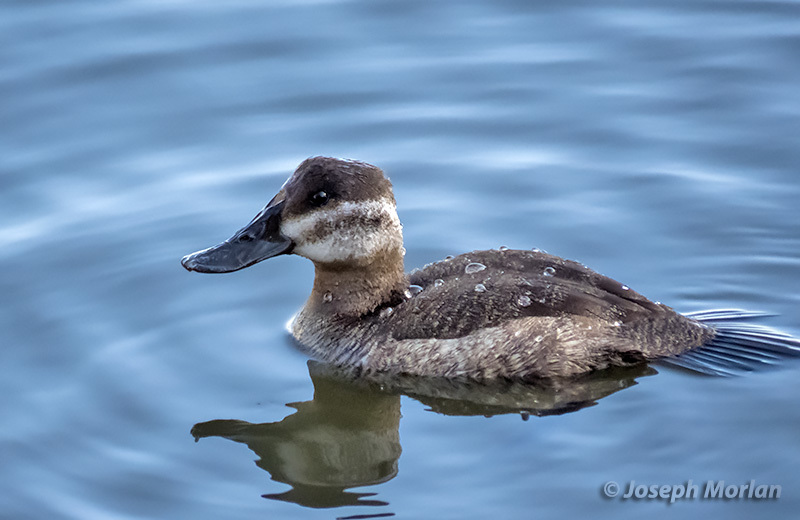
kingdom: Animalia
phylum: Chordata
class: Aves
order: Anseriformes
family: Anatidae
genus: Oxyura
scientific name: Oxyura jamaicensis
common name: Ruddy duck
